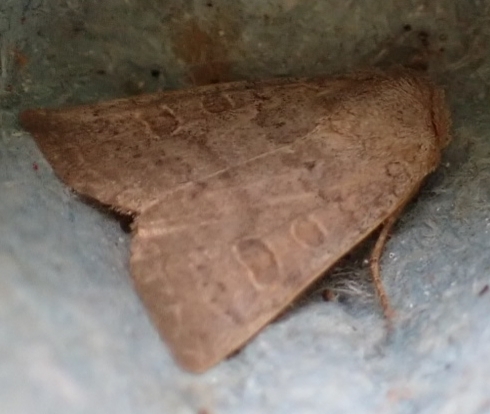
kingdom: Animalia
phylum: Arthropoda
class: Insecta
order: Lepidoptera
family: Noctuidae
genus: Hoplodrina
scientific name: Hoplodrina ambigua
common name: Vine's rustic
